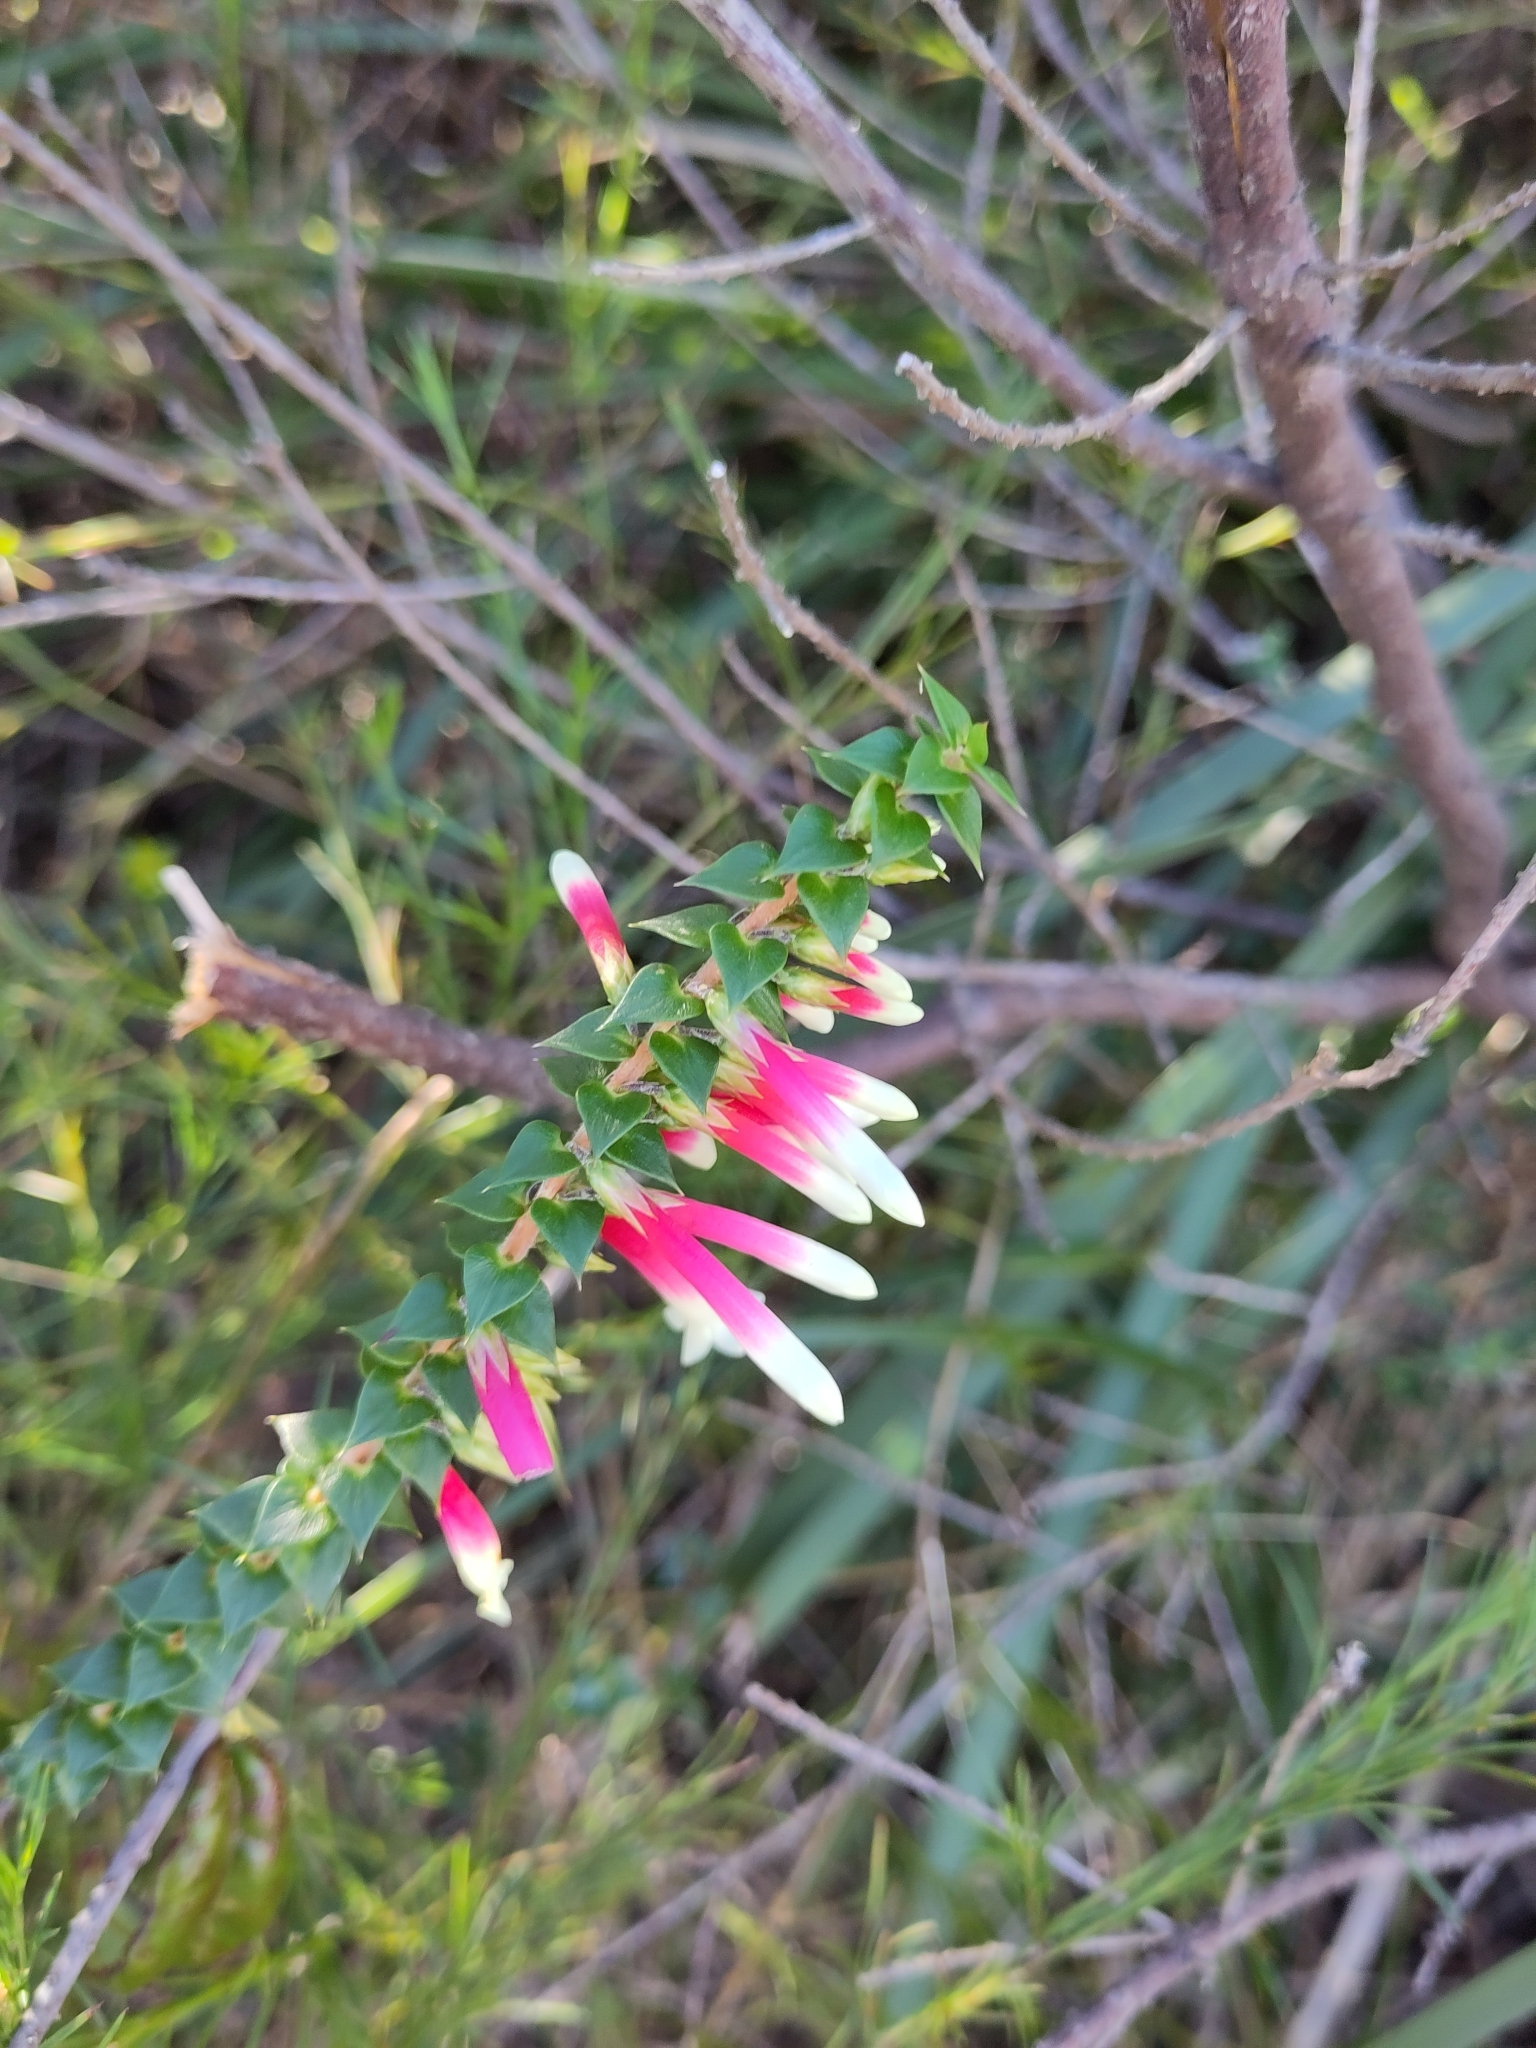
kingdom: Plantae
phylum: Tracheophyta
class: Magnoliopsida
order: Ericales
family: Ericaceae
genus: Epacris
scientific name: Epacris longiflora
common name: Fuchsia-heath
